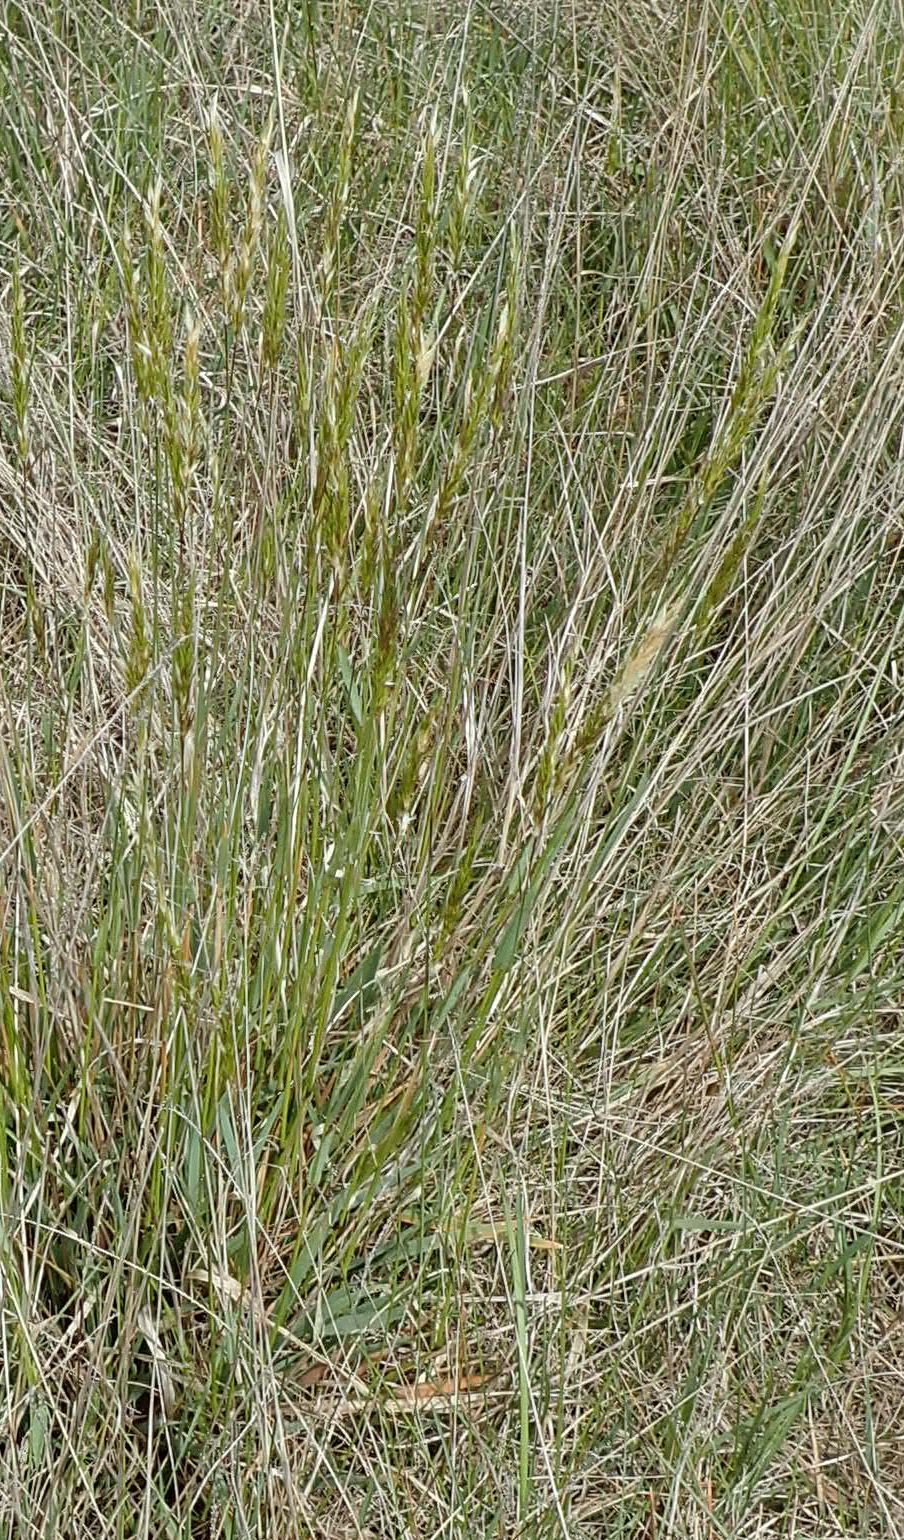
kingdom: Plantae
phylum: Tracheophyta
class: Liliopsida
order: Poales
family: Poaceae
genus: Anthoxanthum
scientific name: Anthoxanthum odoratum
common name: Sweet vernalgrass
